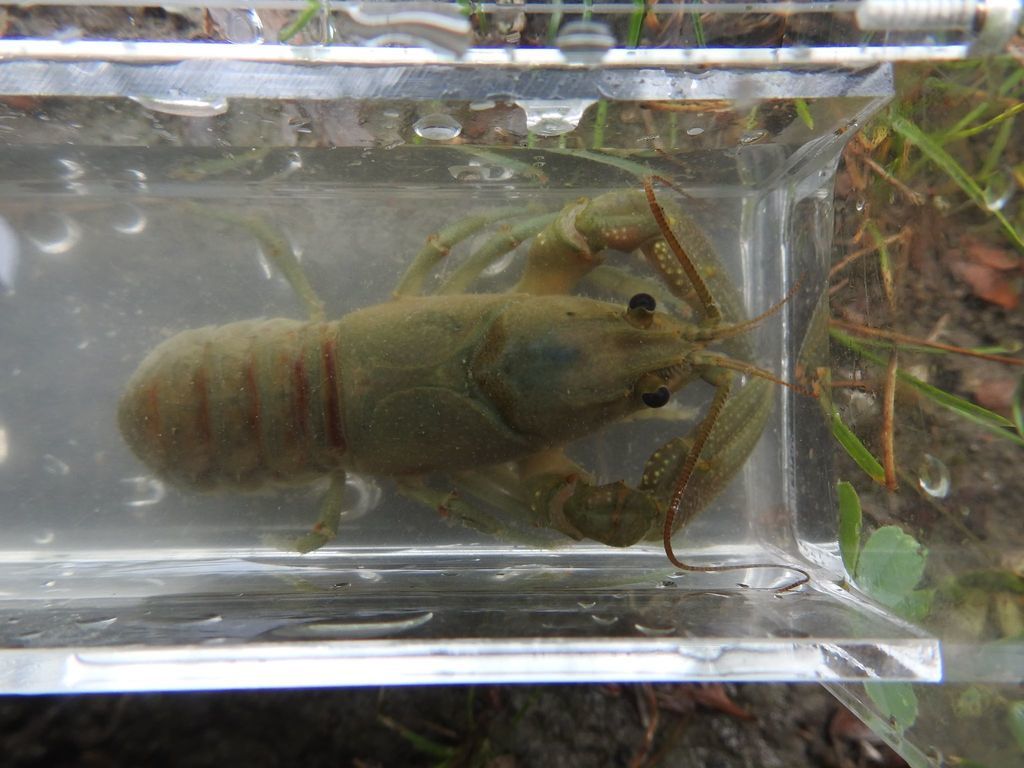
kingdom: Animalia
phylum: Arthropoda
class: Malacostraca
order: Decapoda
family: Cambaridae
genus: Faxonius
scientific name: Faxonius rusticus
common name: Rusty crayfish
